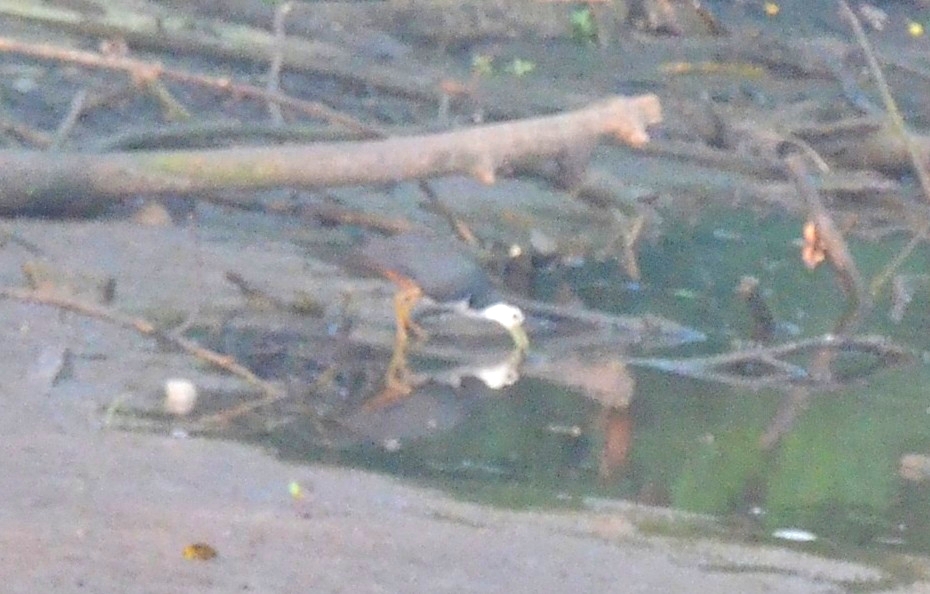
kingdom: Animalia
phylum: Chordata
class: Aves
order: Gruiformes
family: Rallidae
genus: Amaurornis
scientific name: Amaurornis phoenicurus
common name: White-breasted waterhen
